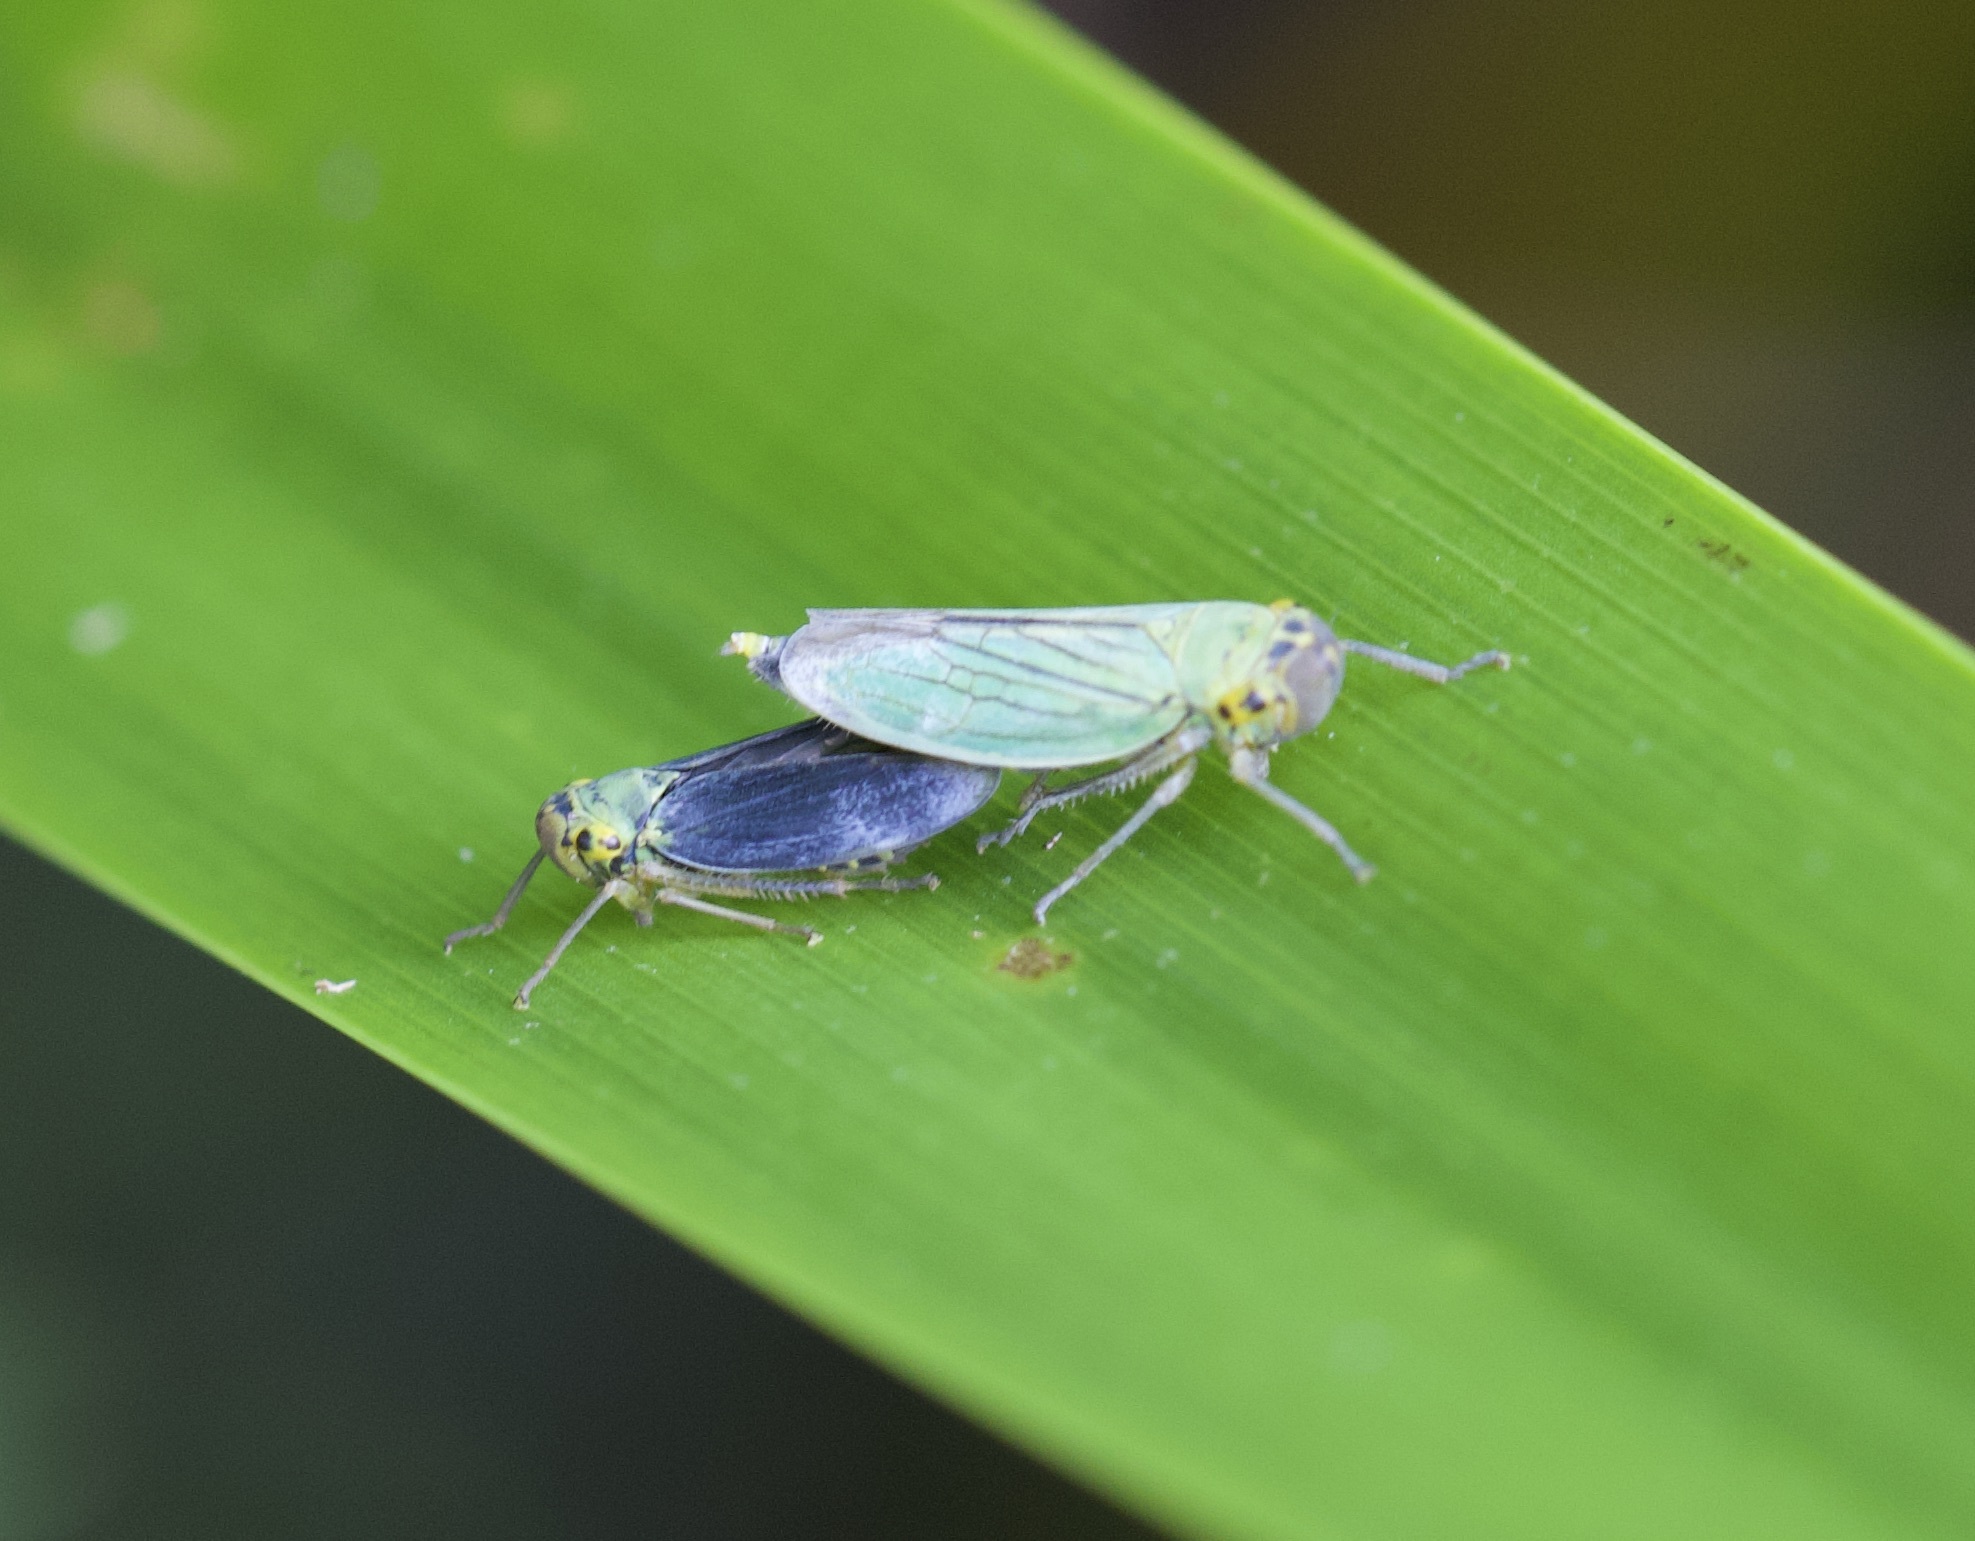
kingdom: Animalia
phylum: Arthropoda
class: Insecta
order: Hemiptera
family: Cicadellidae
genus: Cicadella
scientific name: Cicadella viridis
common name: Leafhopper
